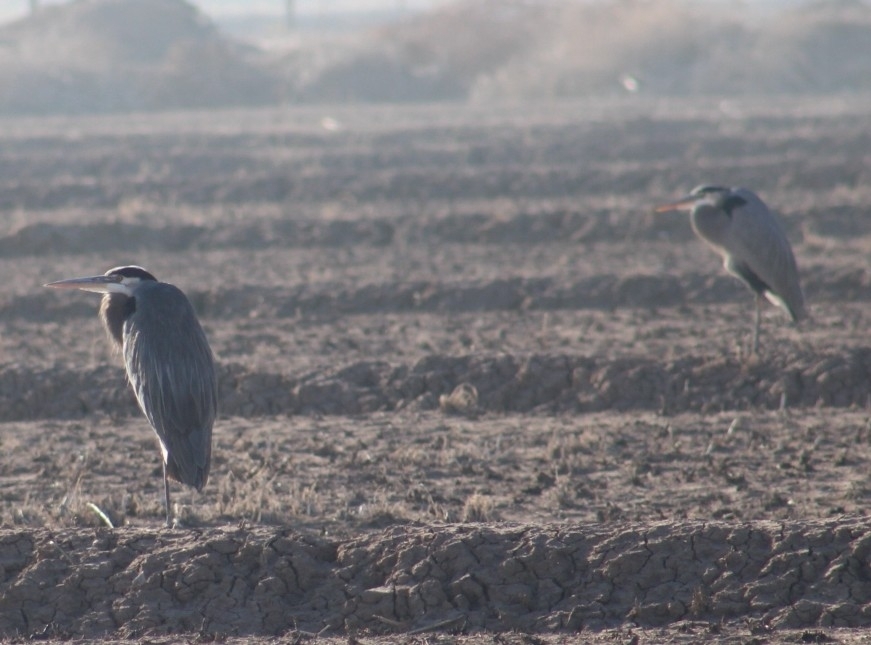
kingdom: Animalia
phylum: Chordata
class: Aves
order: Pelecaniformes
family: Ardeidae
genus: Ardea
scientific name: Ardea herodias
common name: Great blue heron
